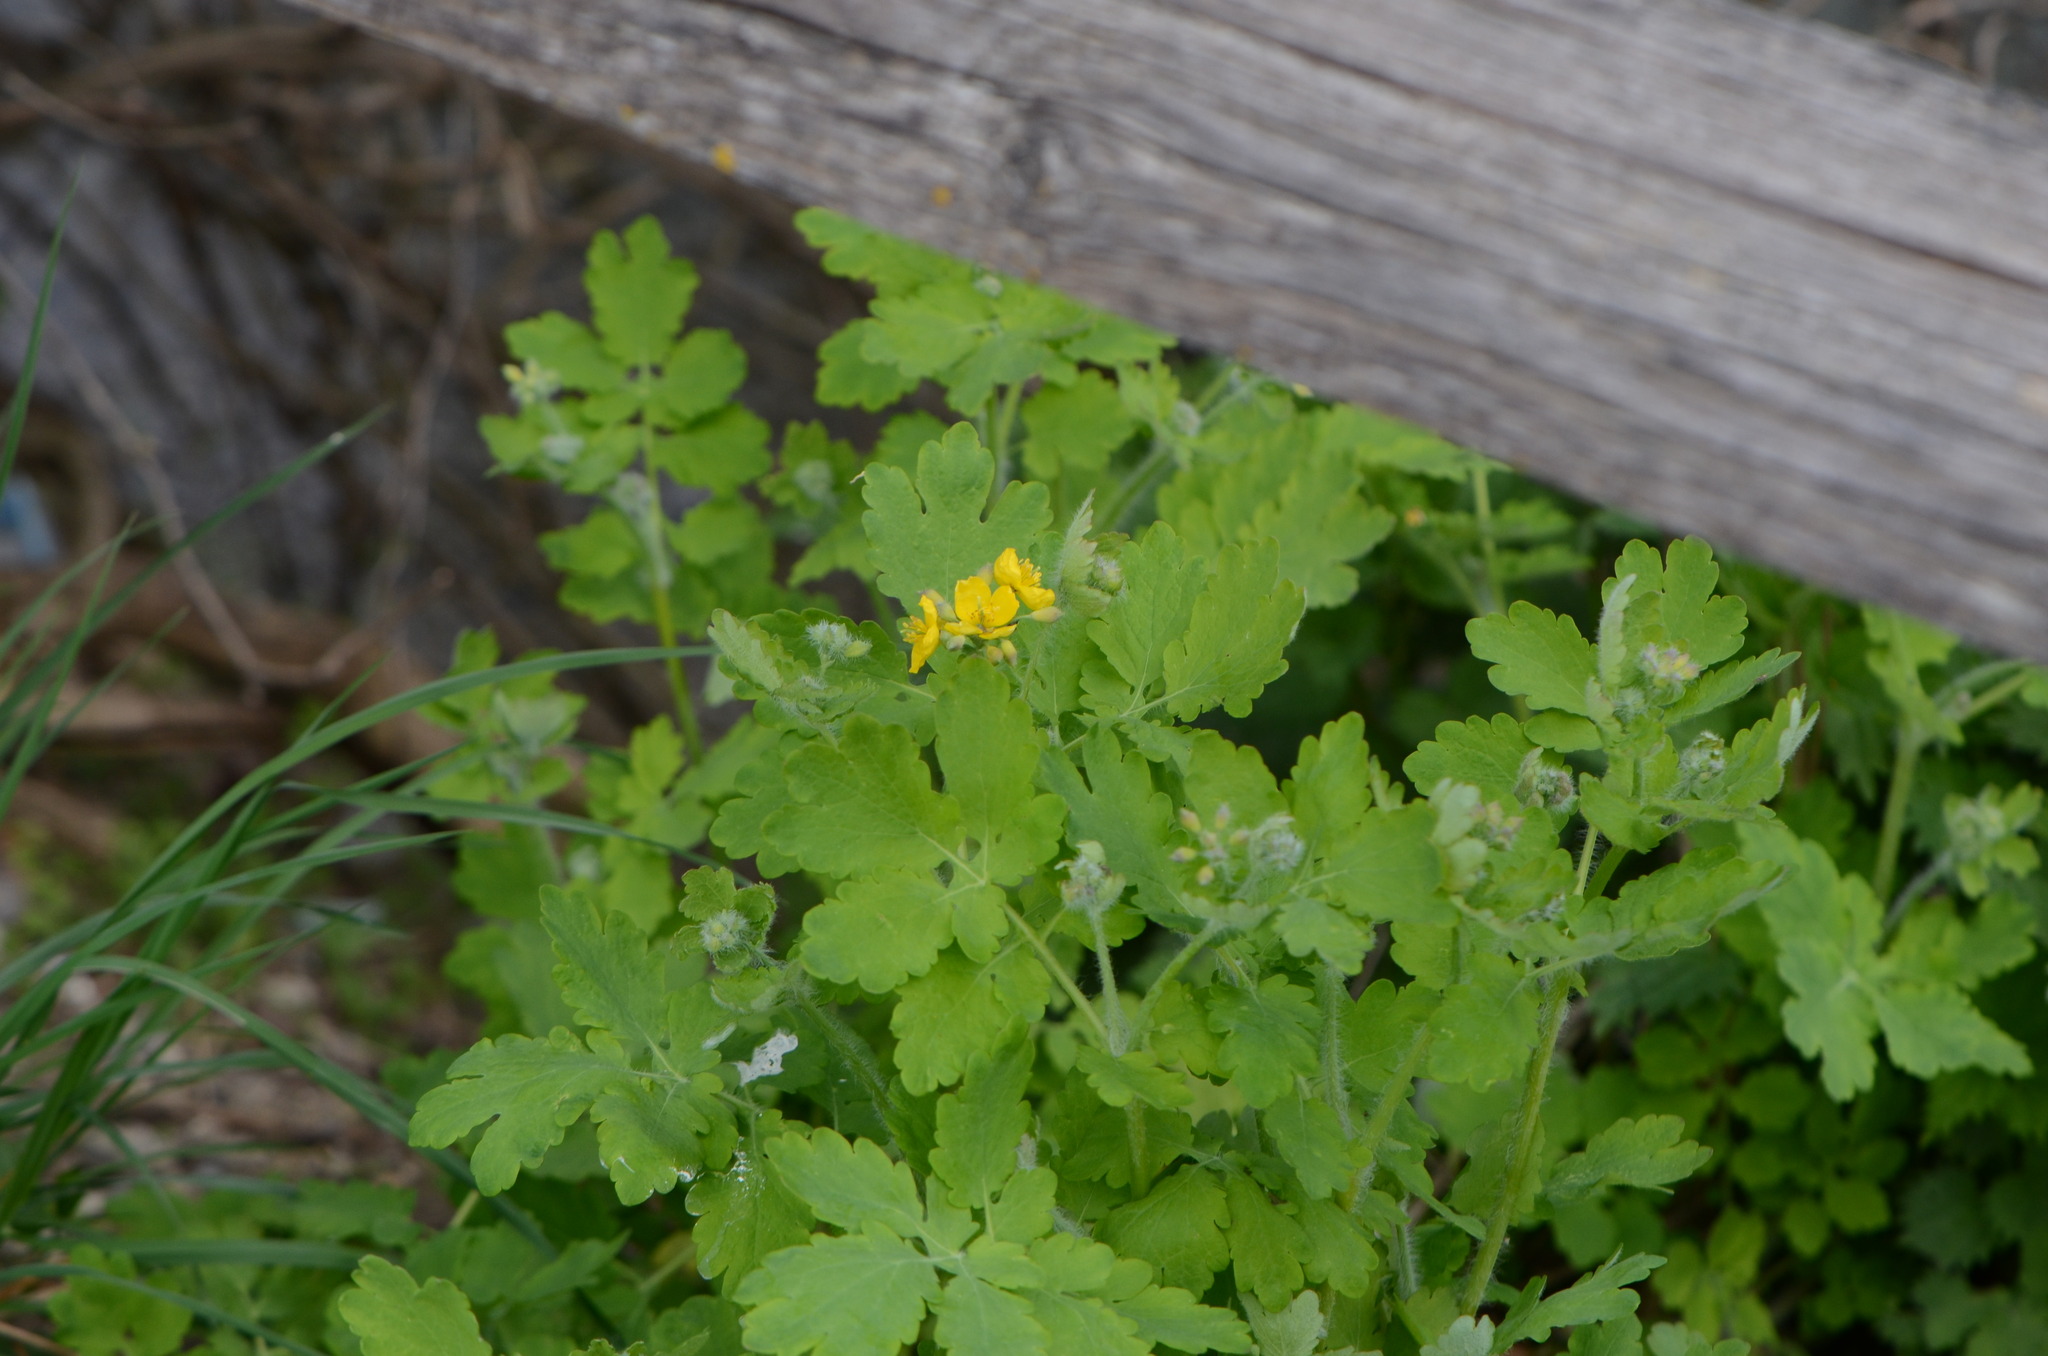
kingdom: Plantae
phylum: Tracheophyta
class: Magnoliopsida
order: Ranunculales
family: Papaveraceae
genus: Chelidonium
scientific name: Chelidonium majus
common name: Greater celandine
